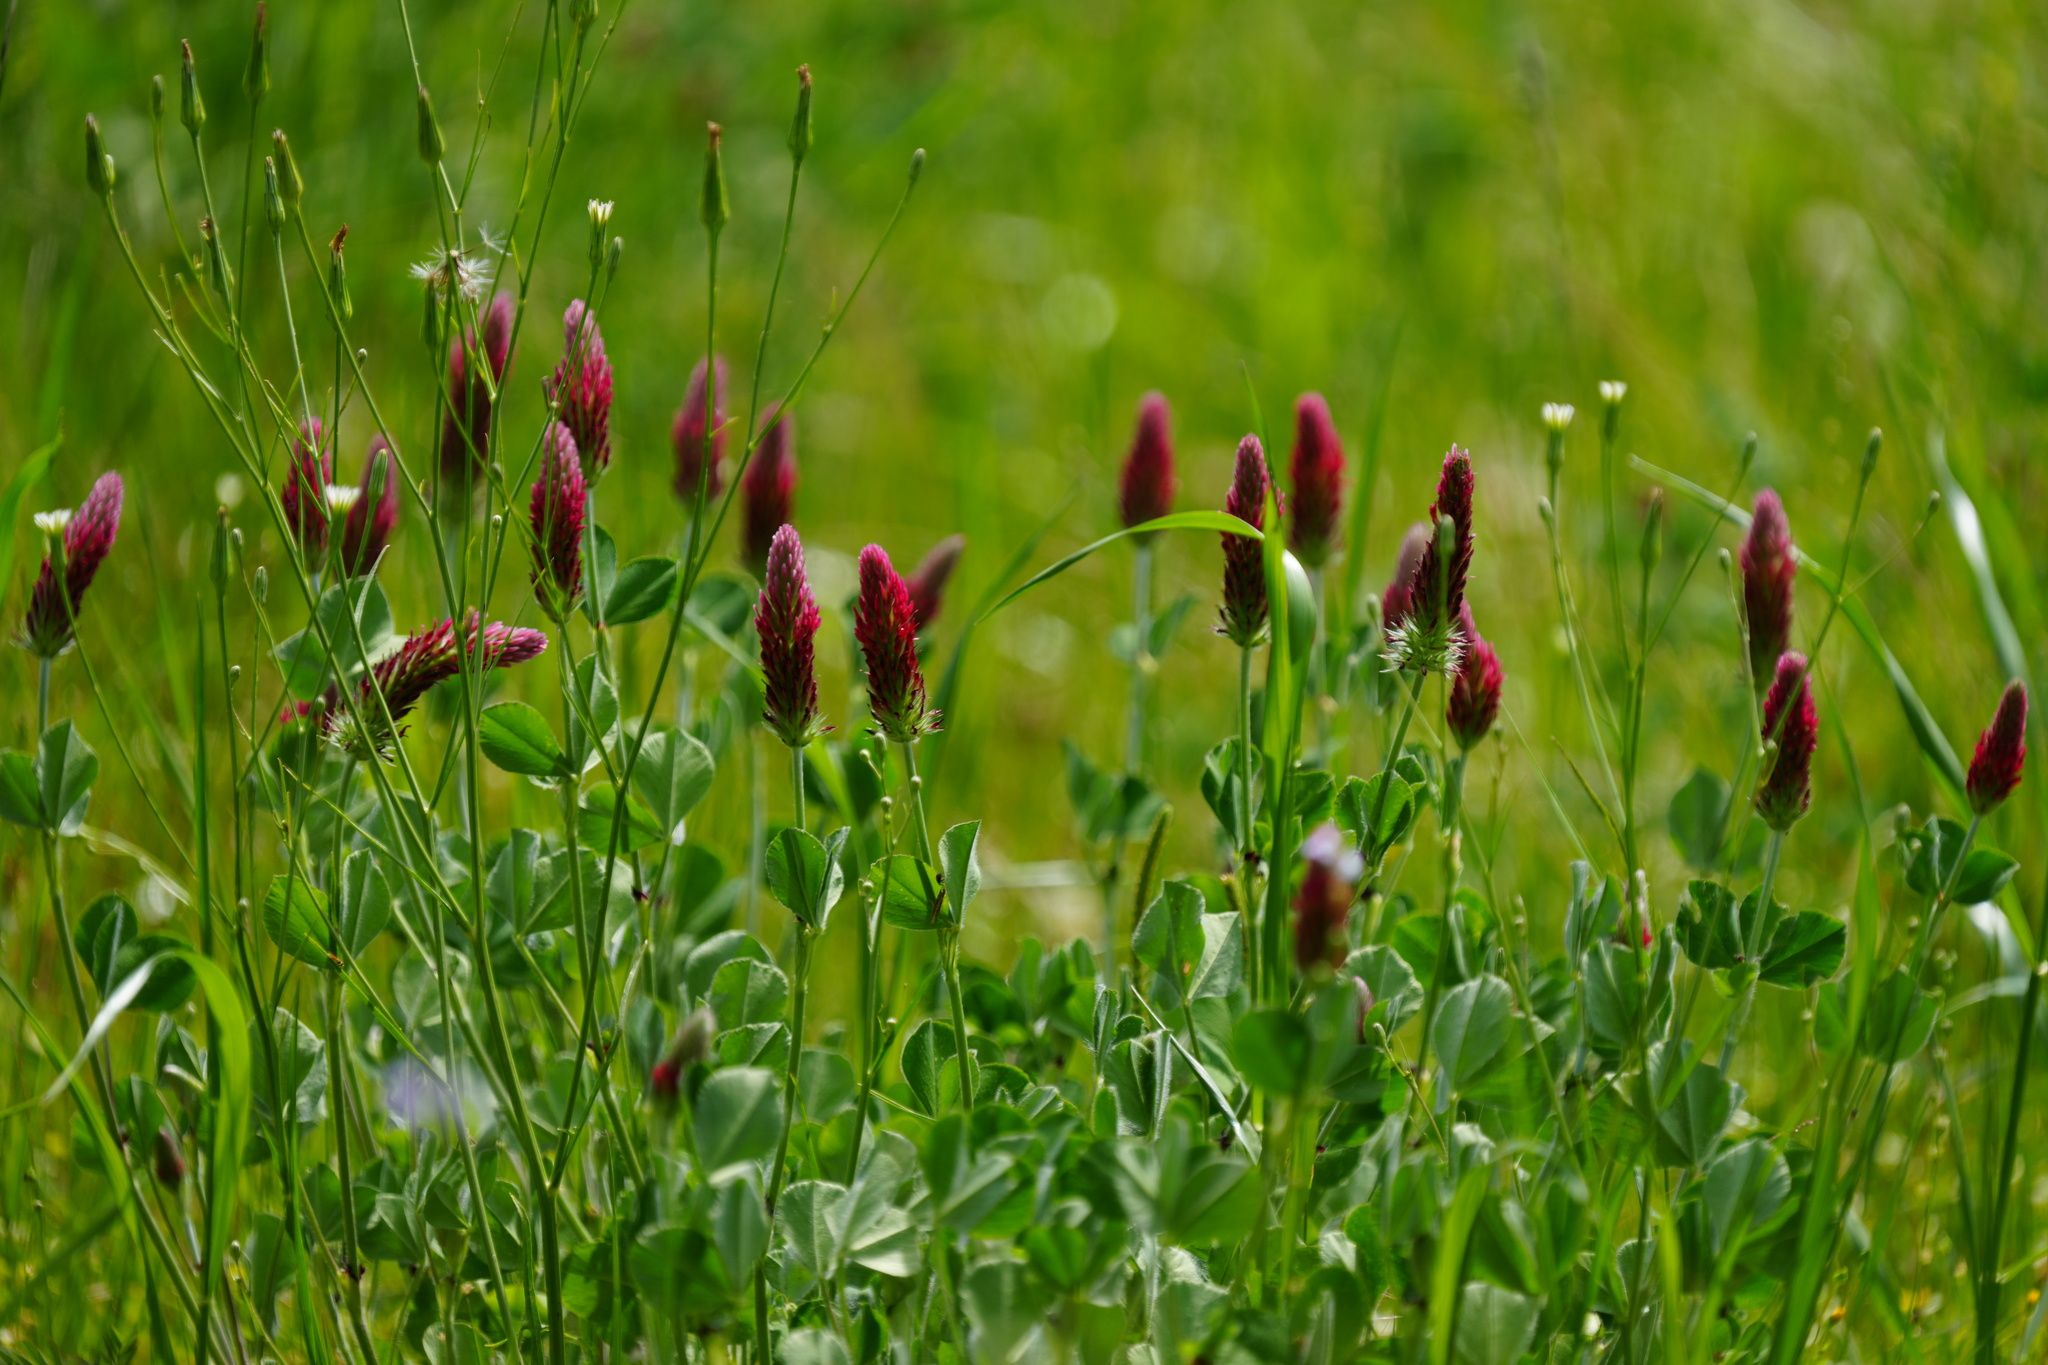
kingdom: Plantae
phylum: Tracheophyta
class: Magnoliopsida
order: Fabales
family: Fabaceae
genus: Trifolium
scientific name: Trifolium incarnatum
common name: Crimson clover
